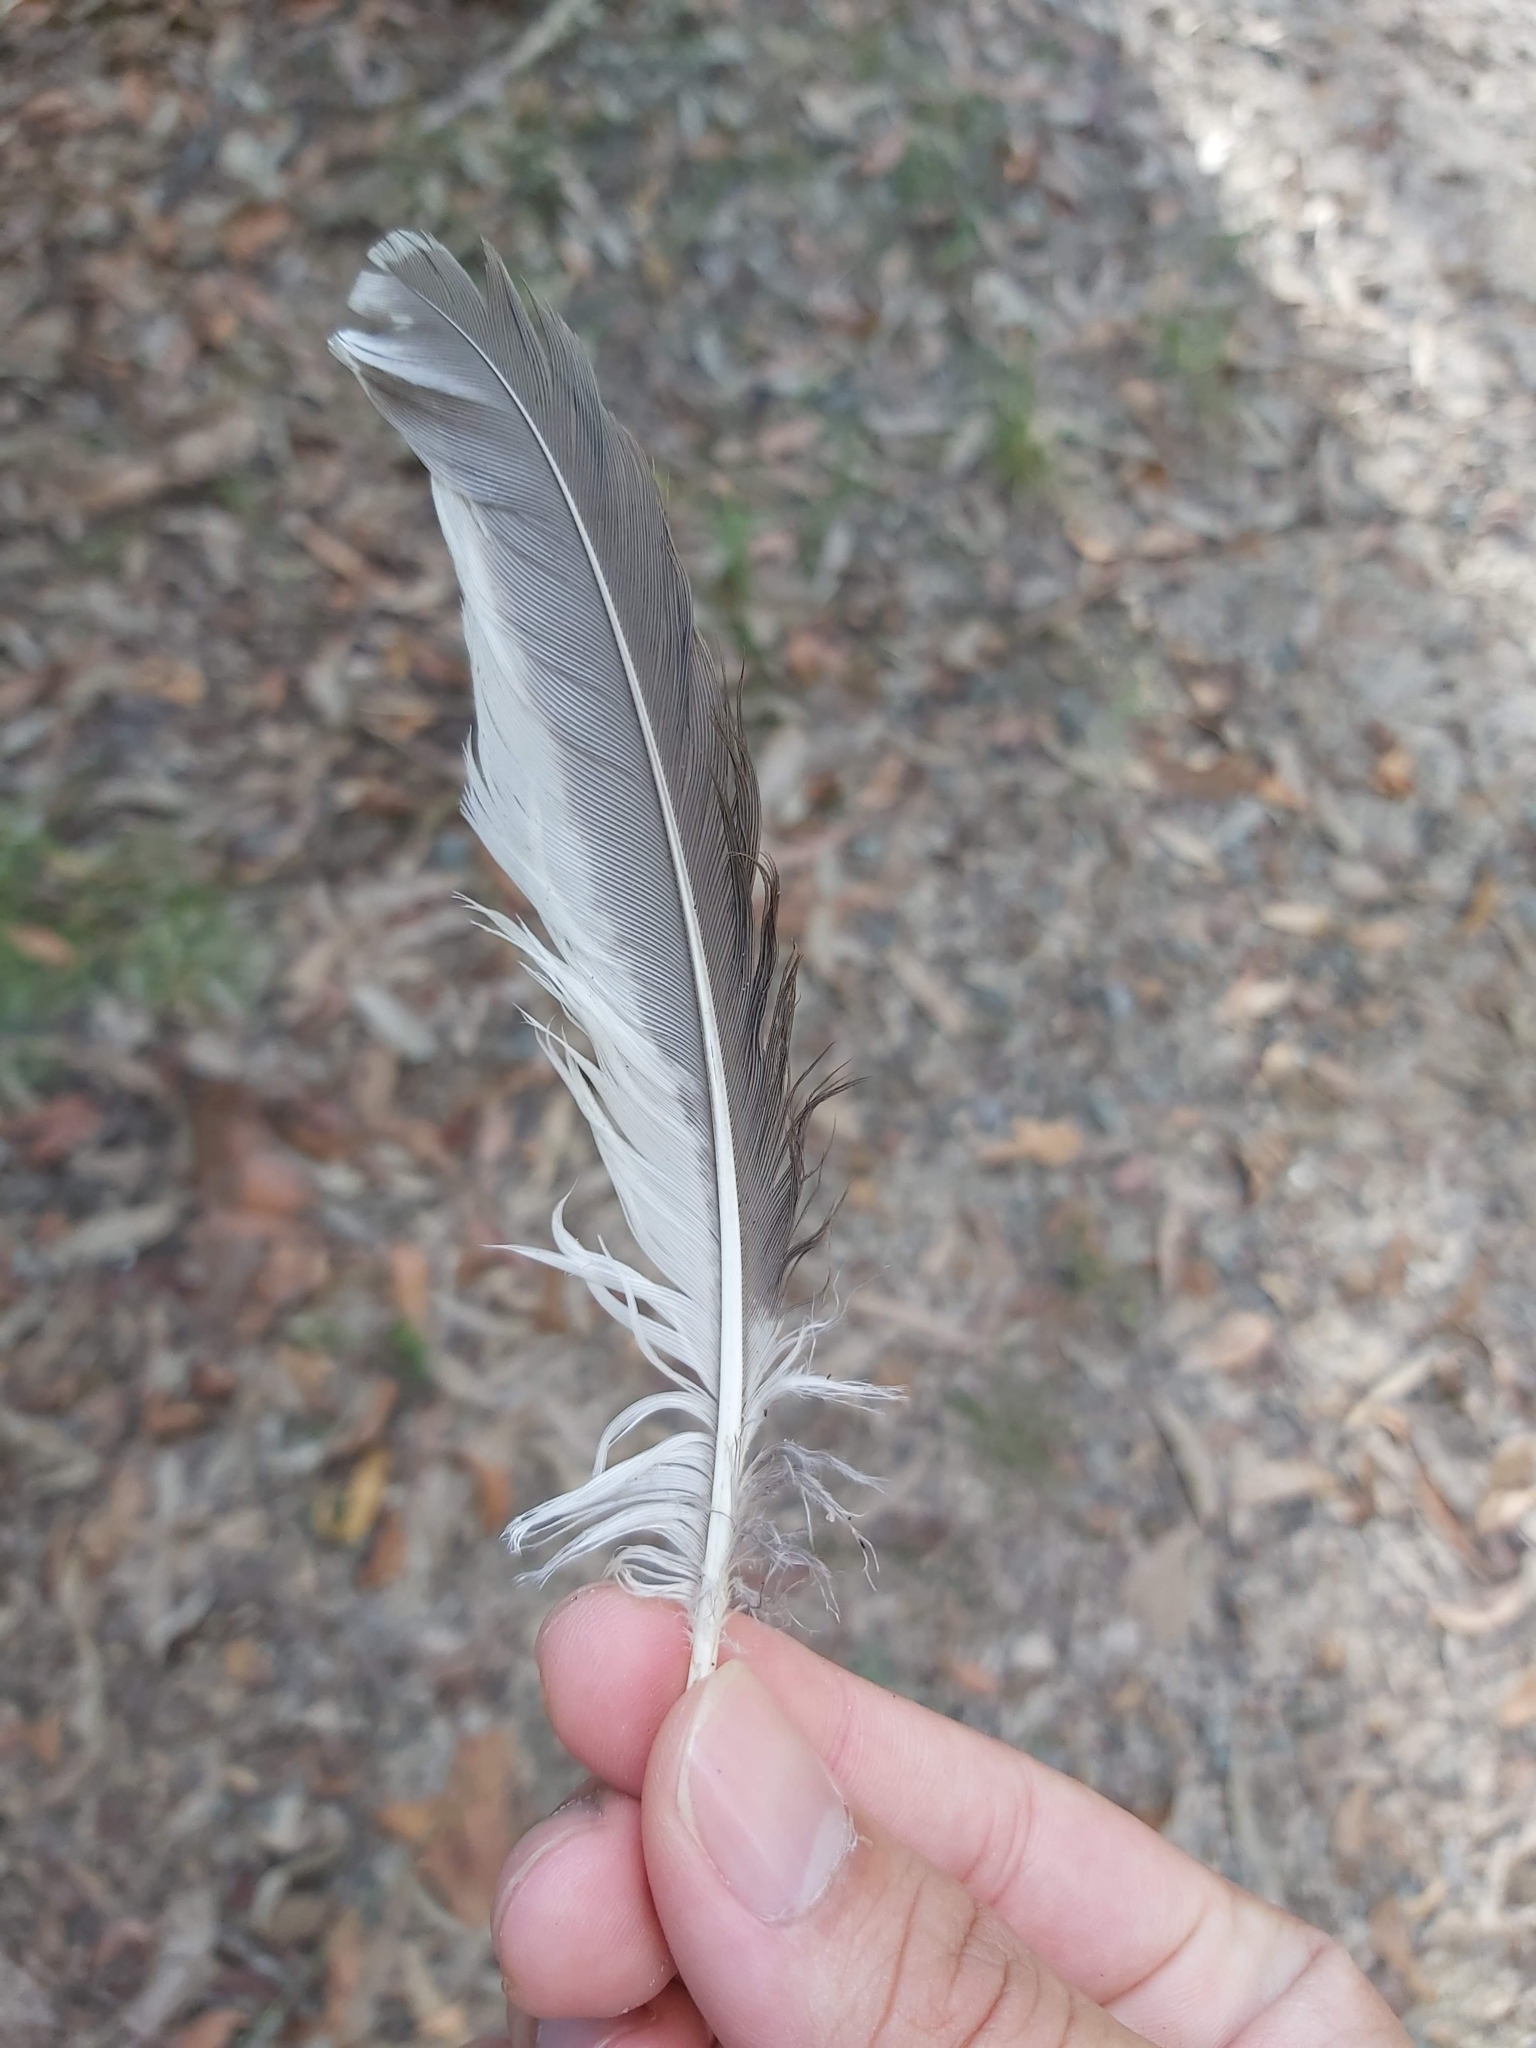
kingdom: Animalia
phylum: Chordata
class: Aves
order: Coraciiformes
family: Alcedinidae
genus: Dacelo
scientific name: Dacelo novaeguineae
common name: Laughing kookaburra
